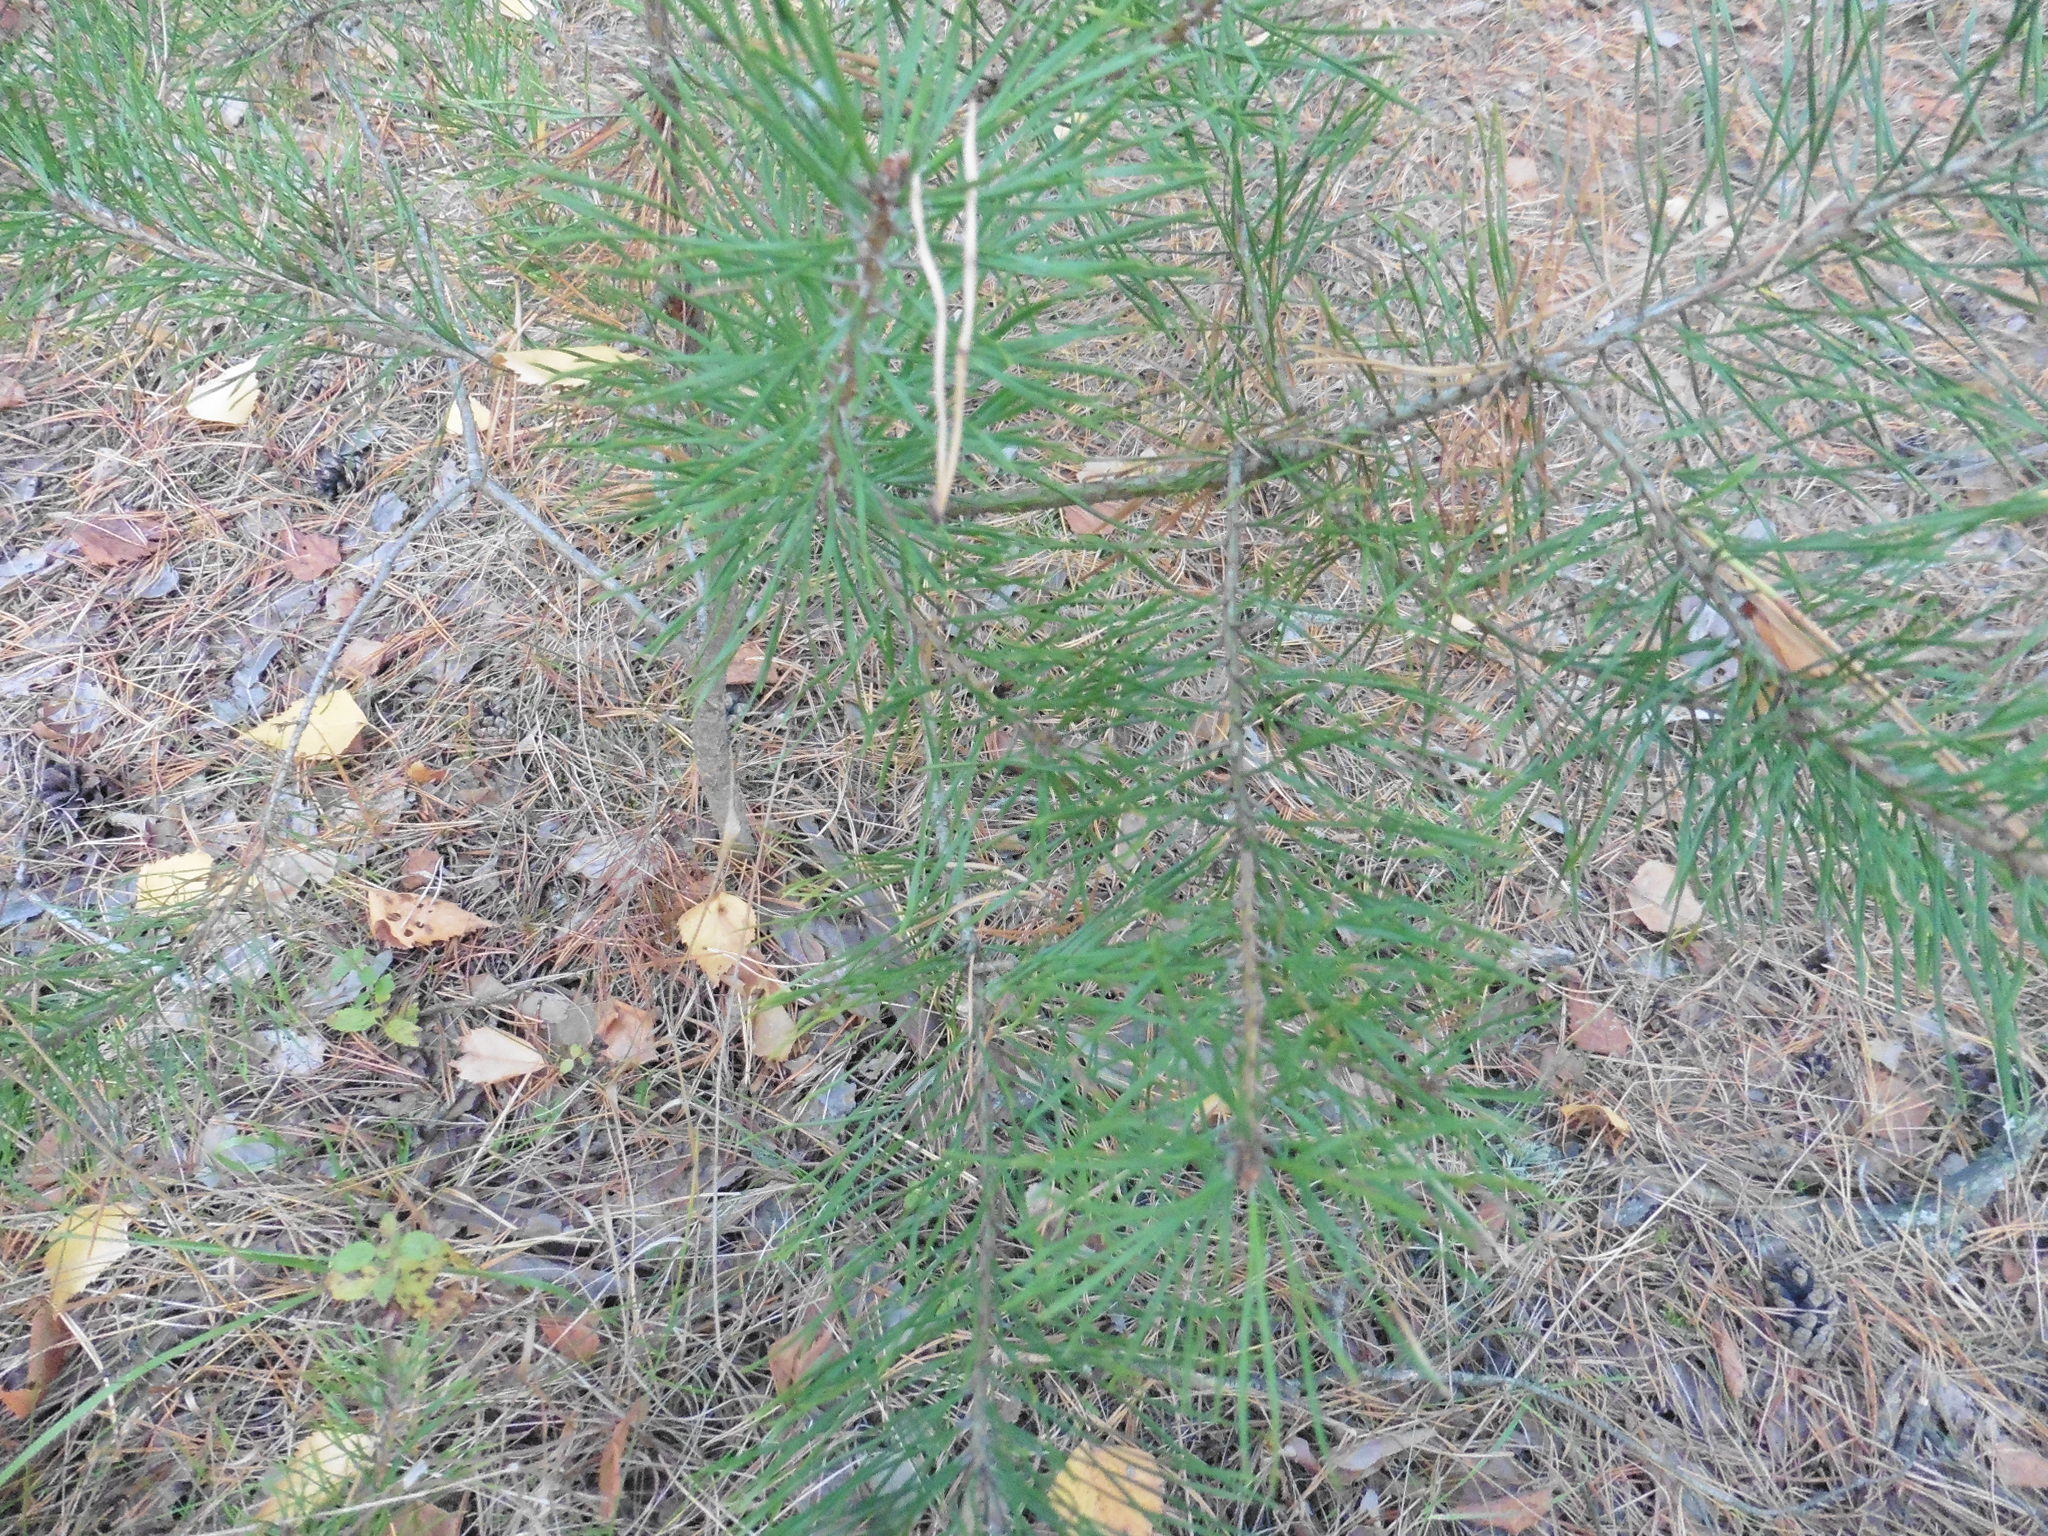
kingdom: Plantae
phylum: Tracheophyta
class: Pinopsida
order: Pinales
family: Pinaceae
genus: Pinus
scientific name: Pinus sylvestris
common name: Scots pine
